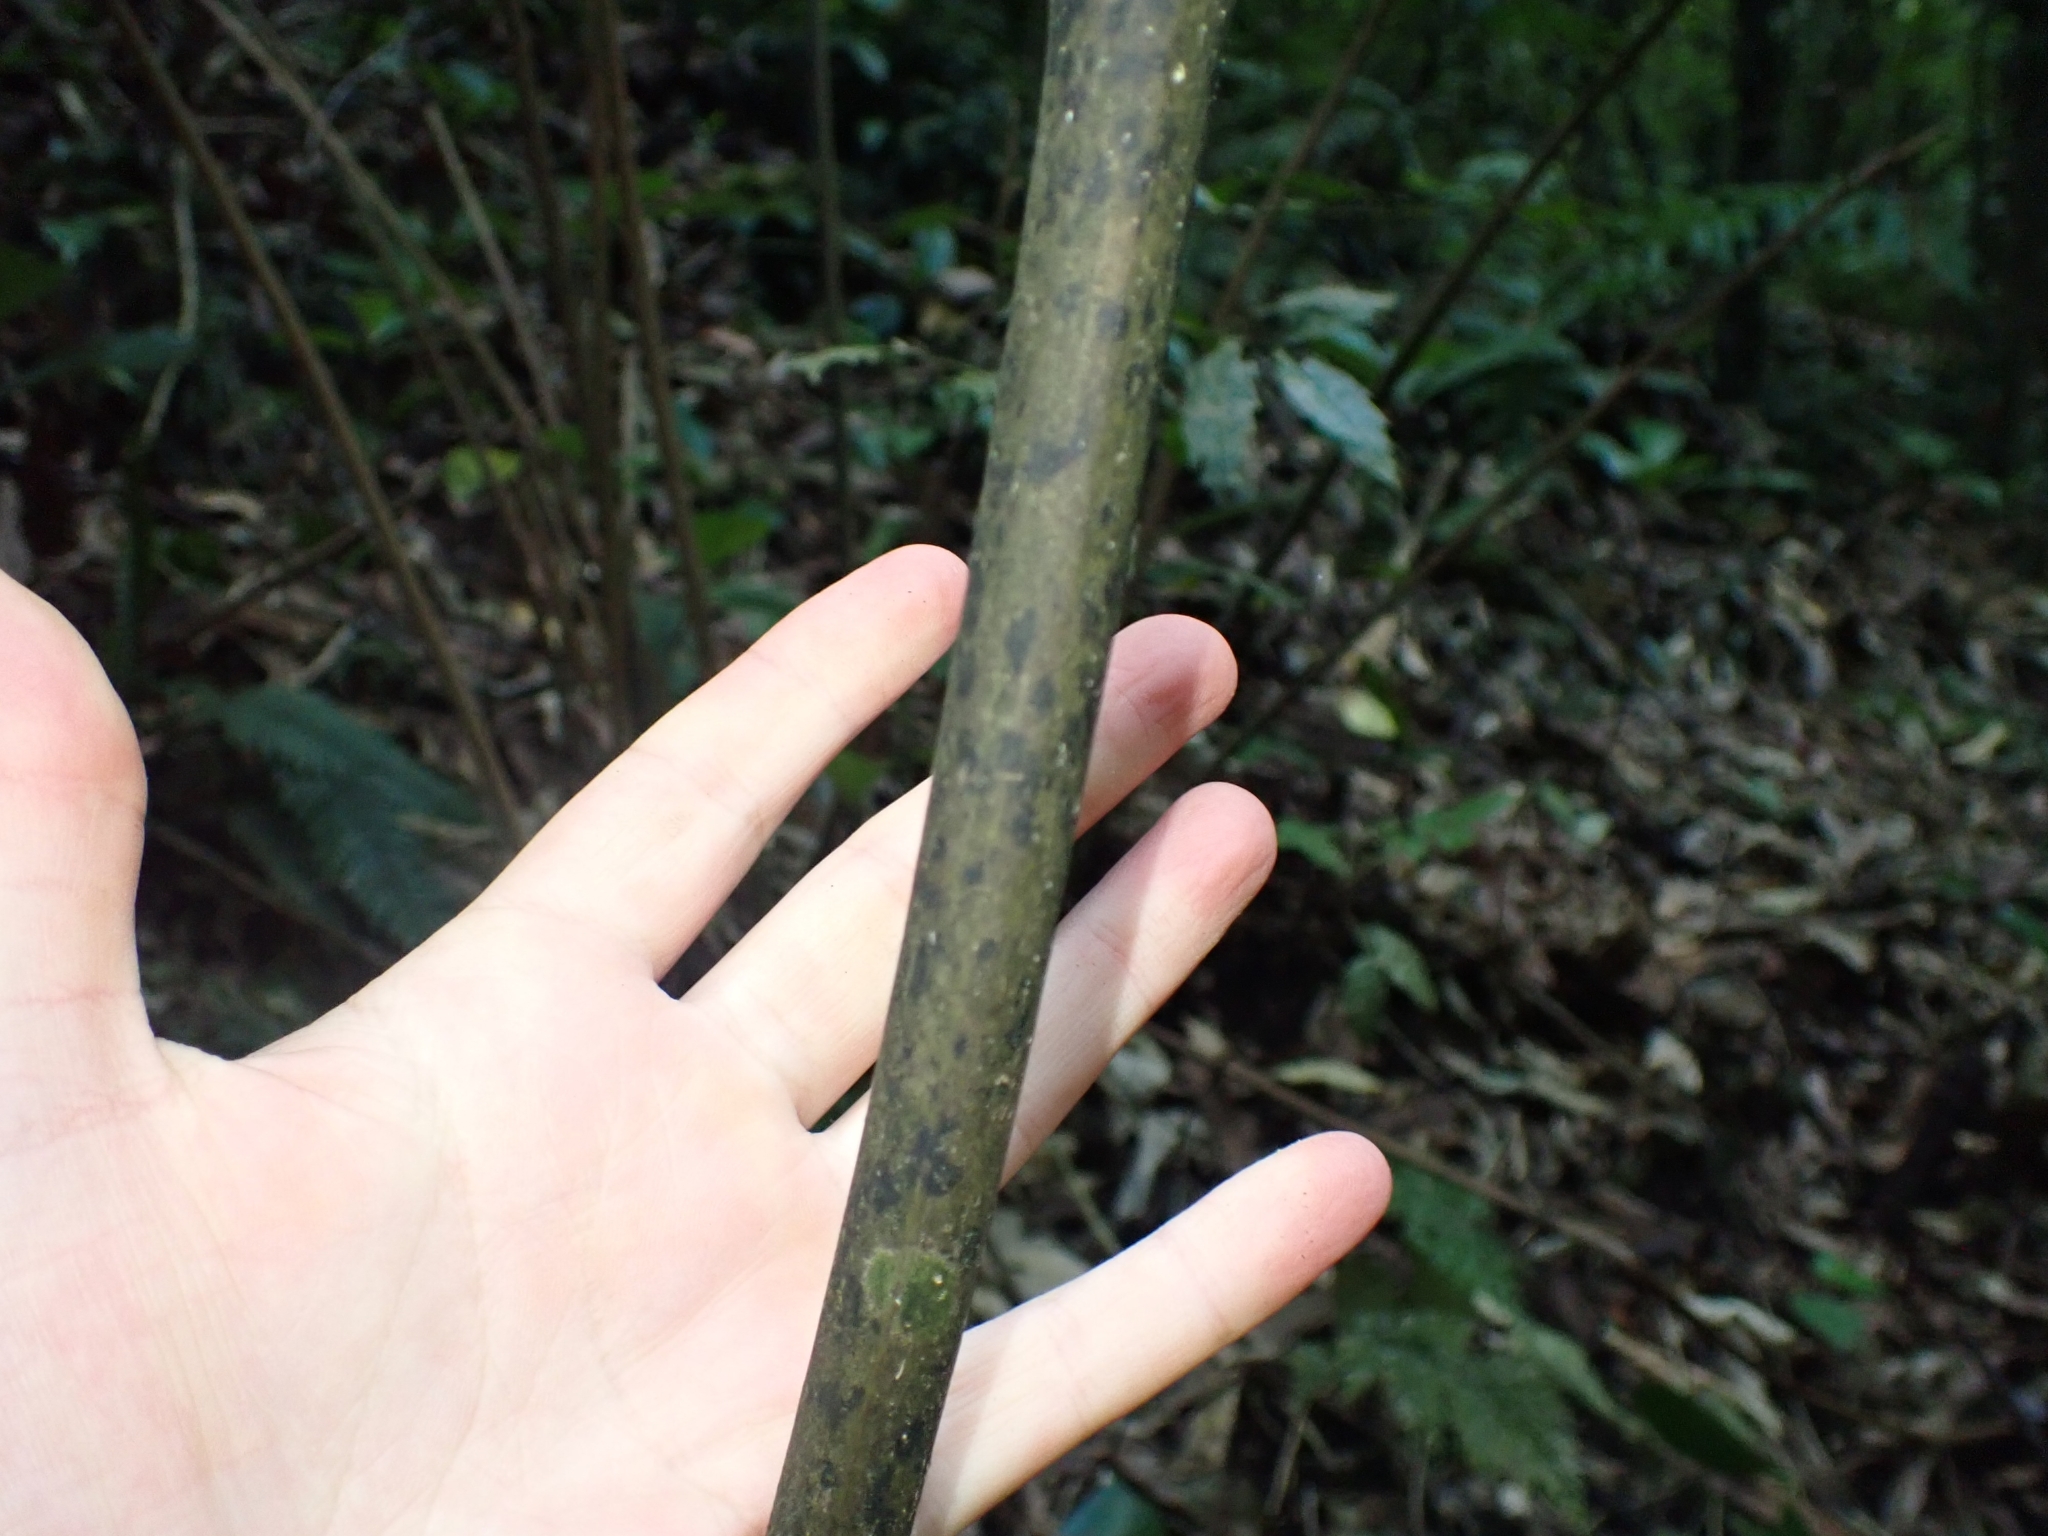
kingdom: Plantae
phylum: Tracheophyta
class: Liliopsida
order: Liliales
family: Ripogonaceae
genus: Ripogonum
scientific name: Ripogonum scandens
